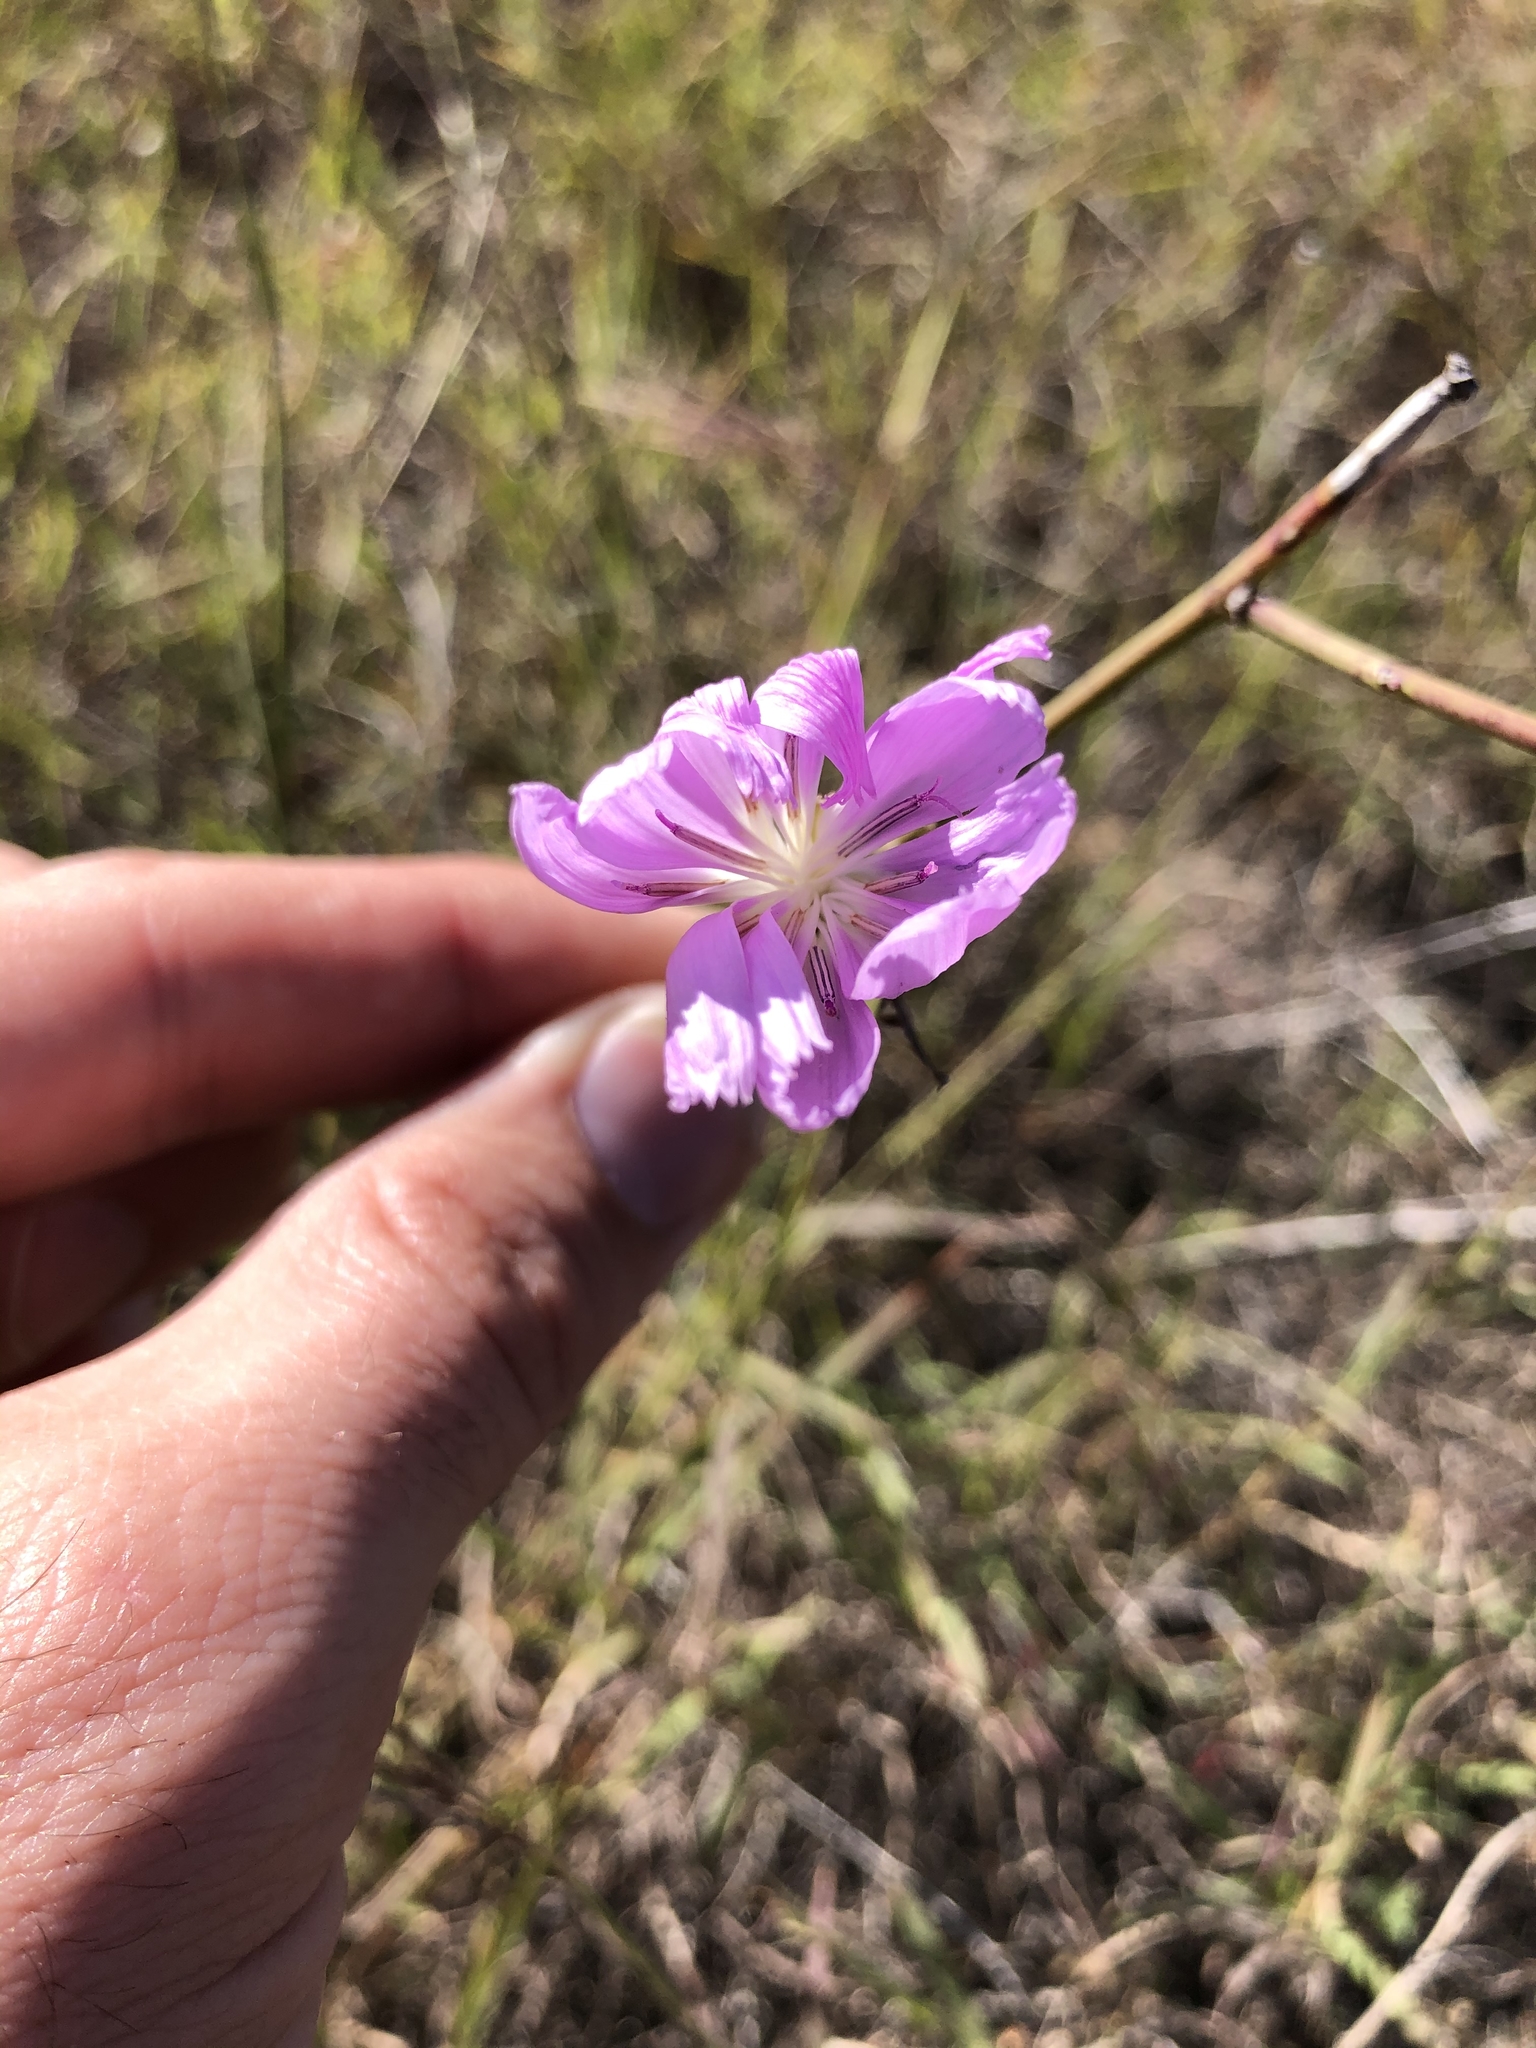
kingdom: Plantae
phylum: Tracheophyta
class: Magnoliopsida
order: Asterales
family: Asteraceae
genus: Lygodesmia
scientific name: Lygodesmia texana
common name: Texas skeleton-plant
